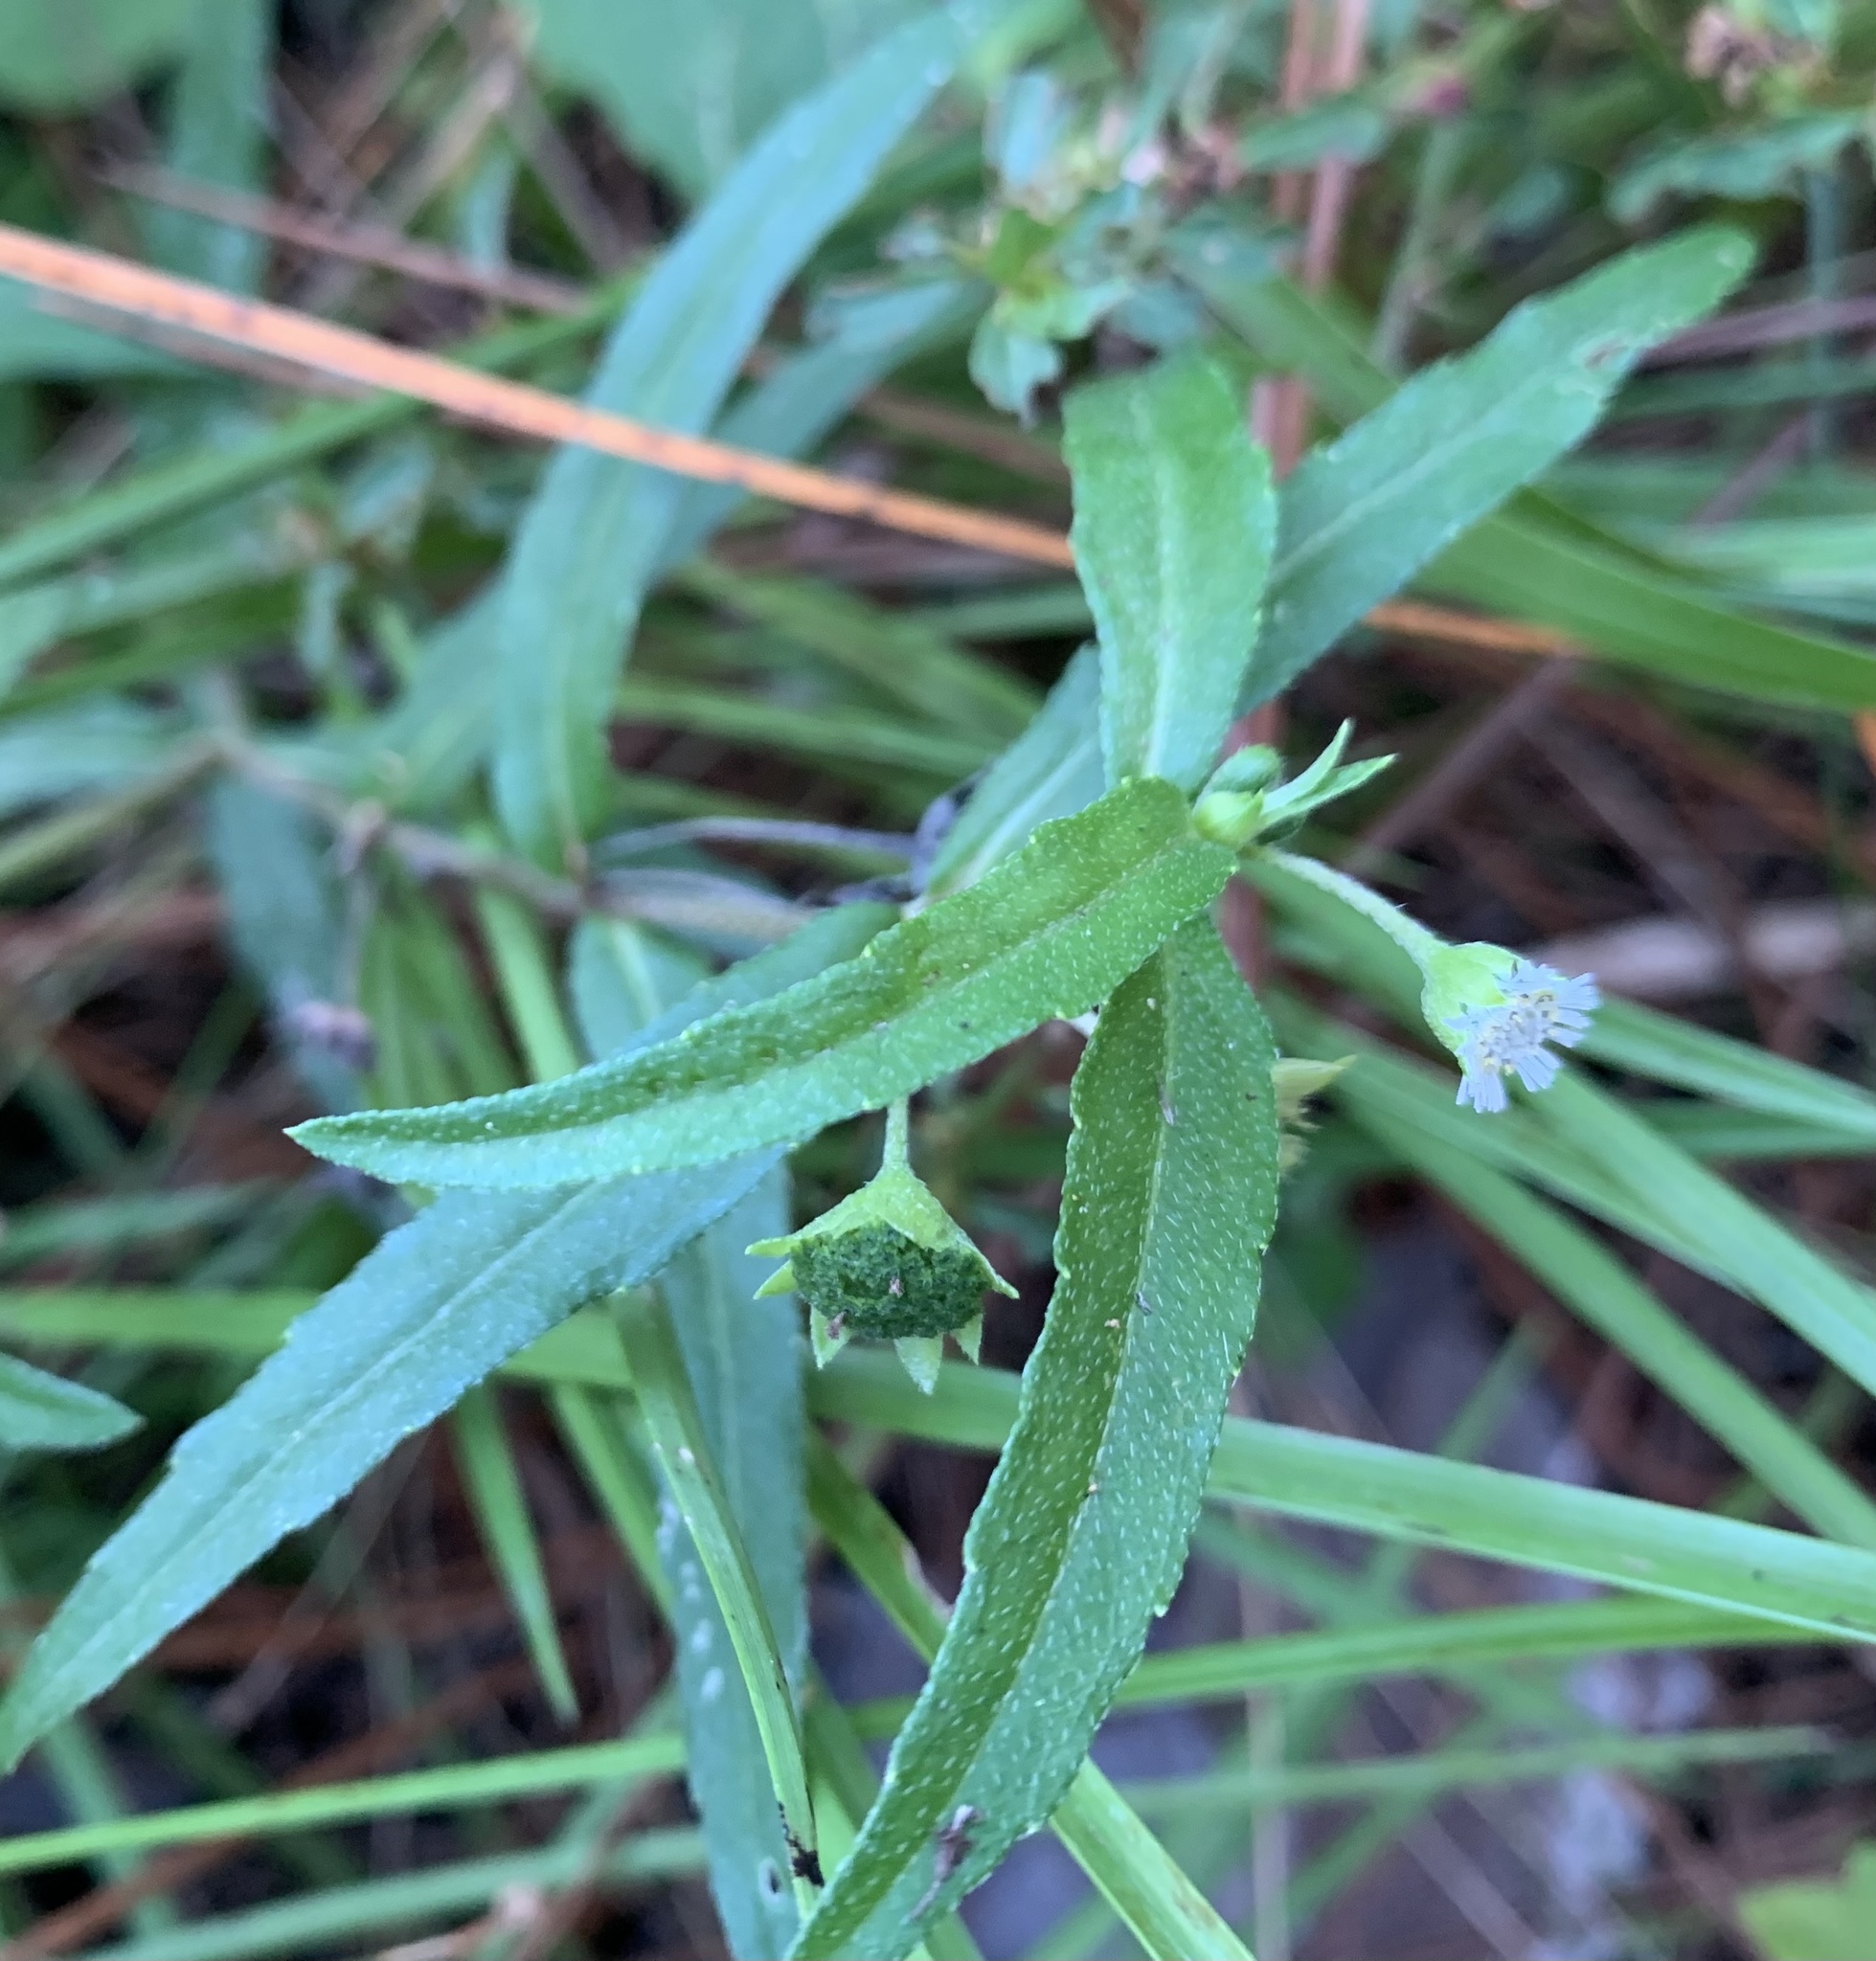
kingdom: Plantae
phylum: Tracheophyta
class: Magnoliopsida
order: Asterales
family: Asteraceae
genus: Eclipta
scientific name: Eclipta prostrata
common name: False daisy
